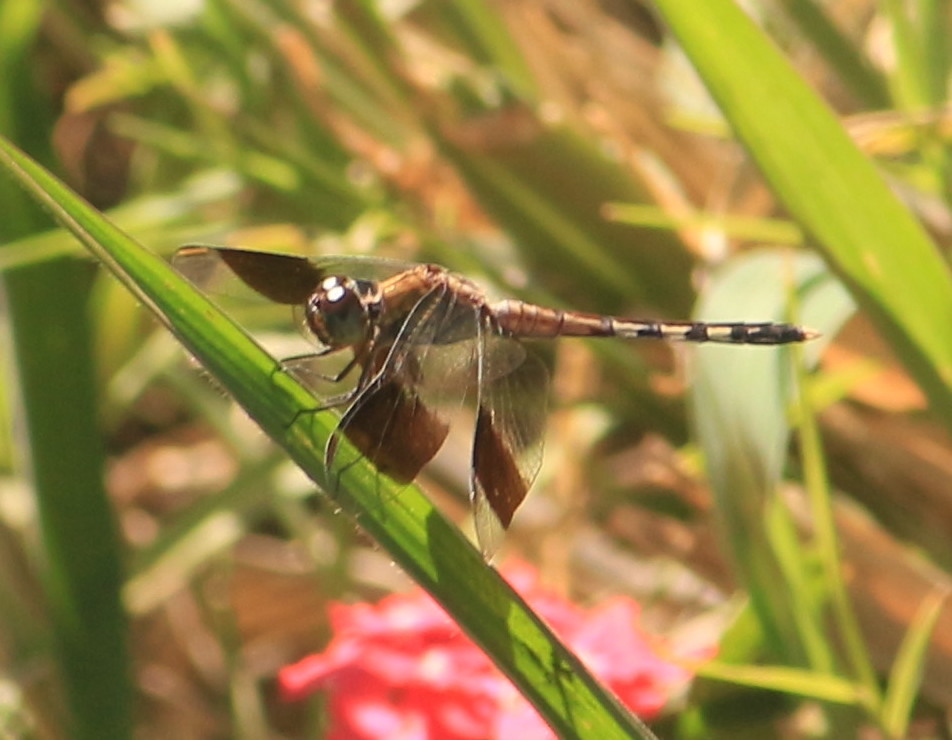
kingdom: Animalia
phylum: Arthropoda
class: Insecta
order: Odonata
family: Libellulidae
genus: Erythrodiplax
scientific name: Erythrodiplax umbrata
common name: Band-winged dragonlet
